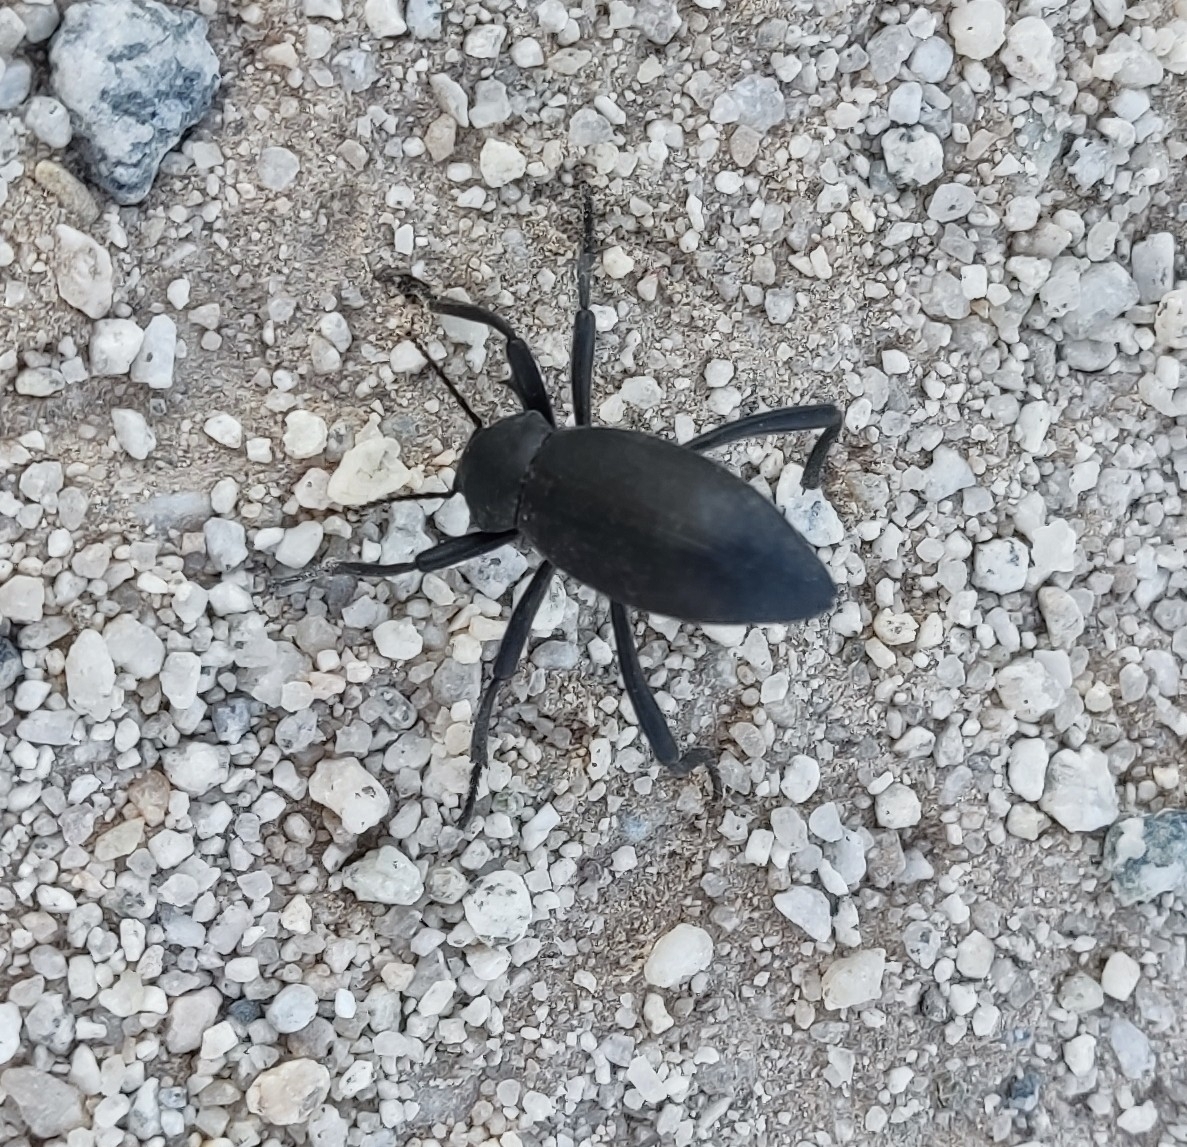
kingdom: Animalia
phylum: Arthropoda
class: Insecta
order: Coleoptera
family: Tenebrionidae
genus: Eleodes
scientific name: Eleodes armata
